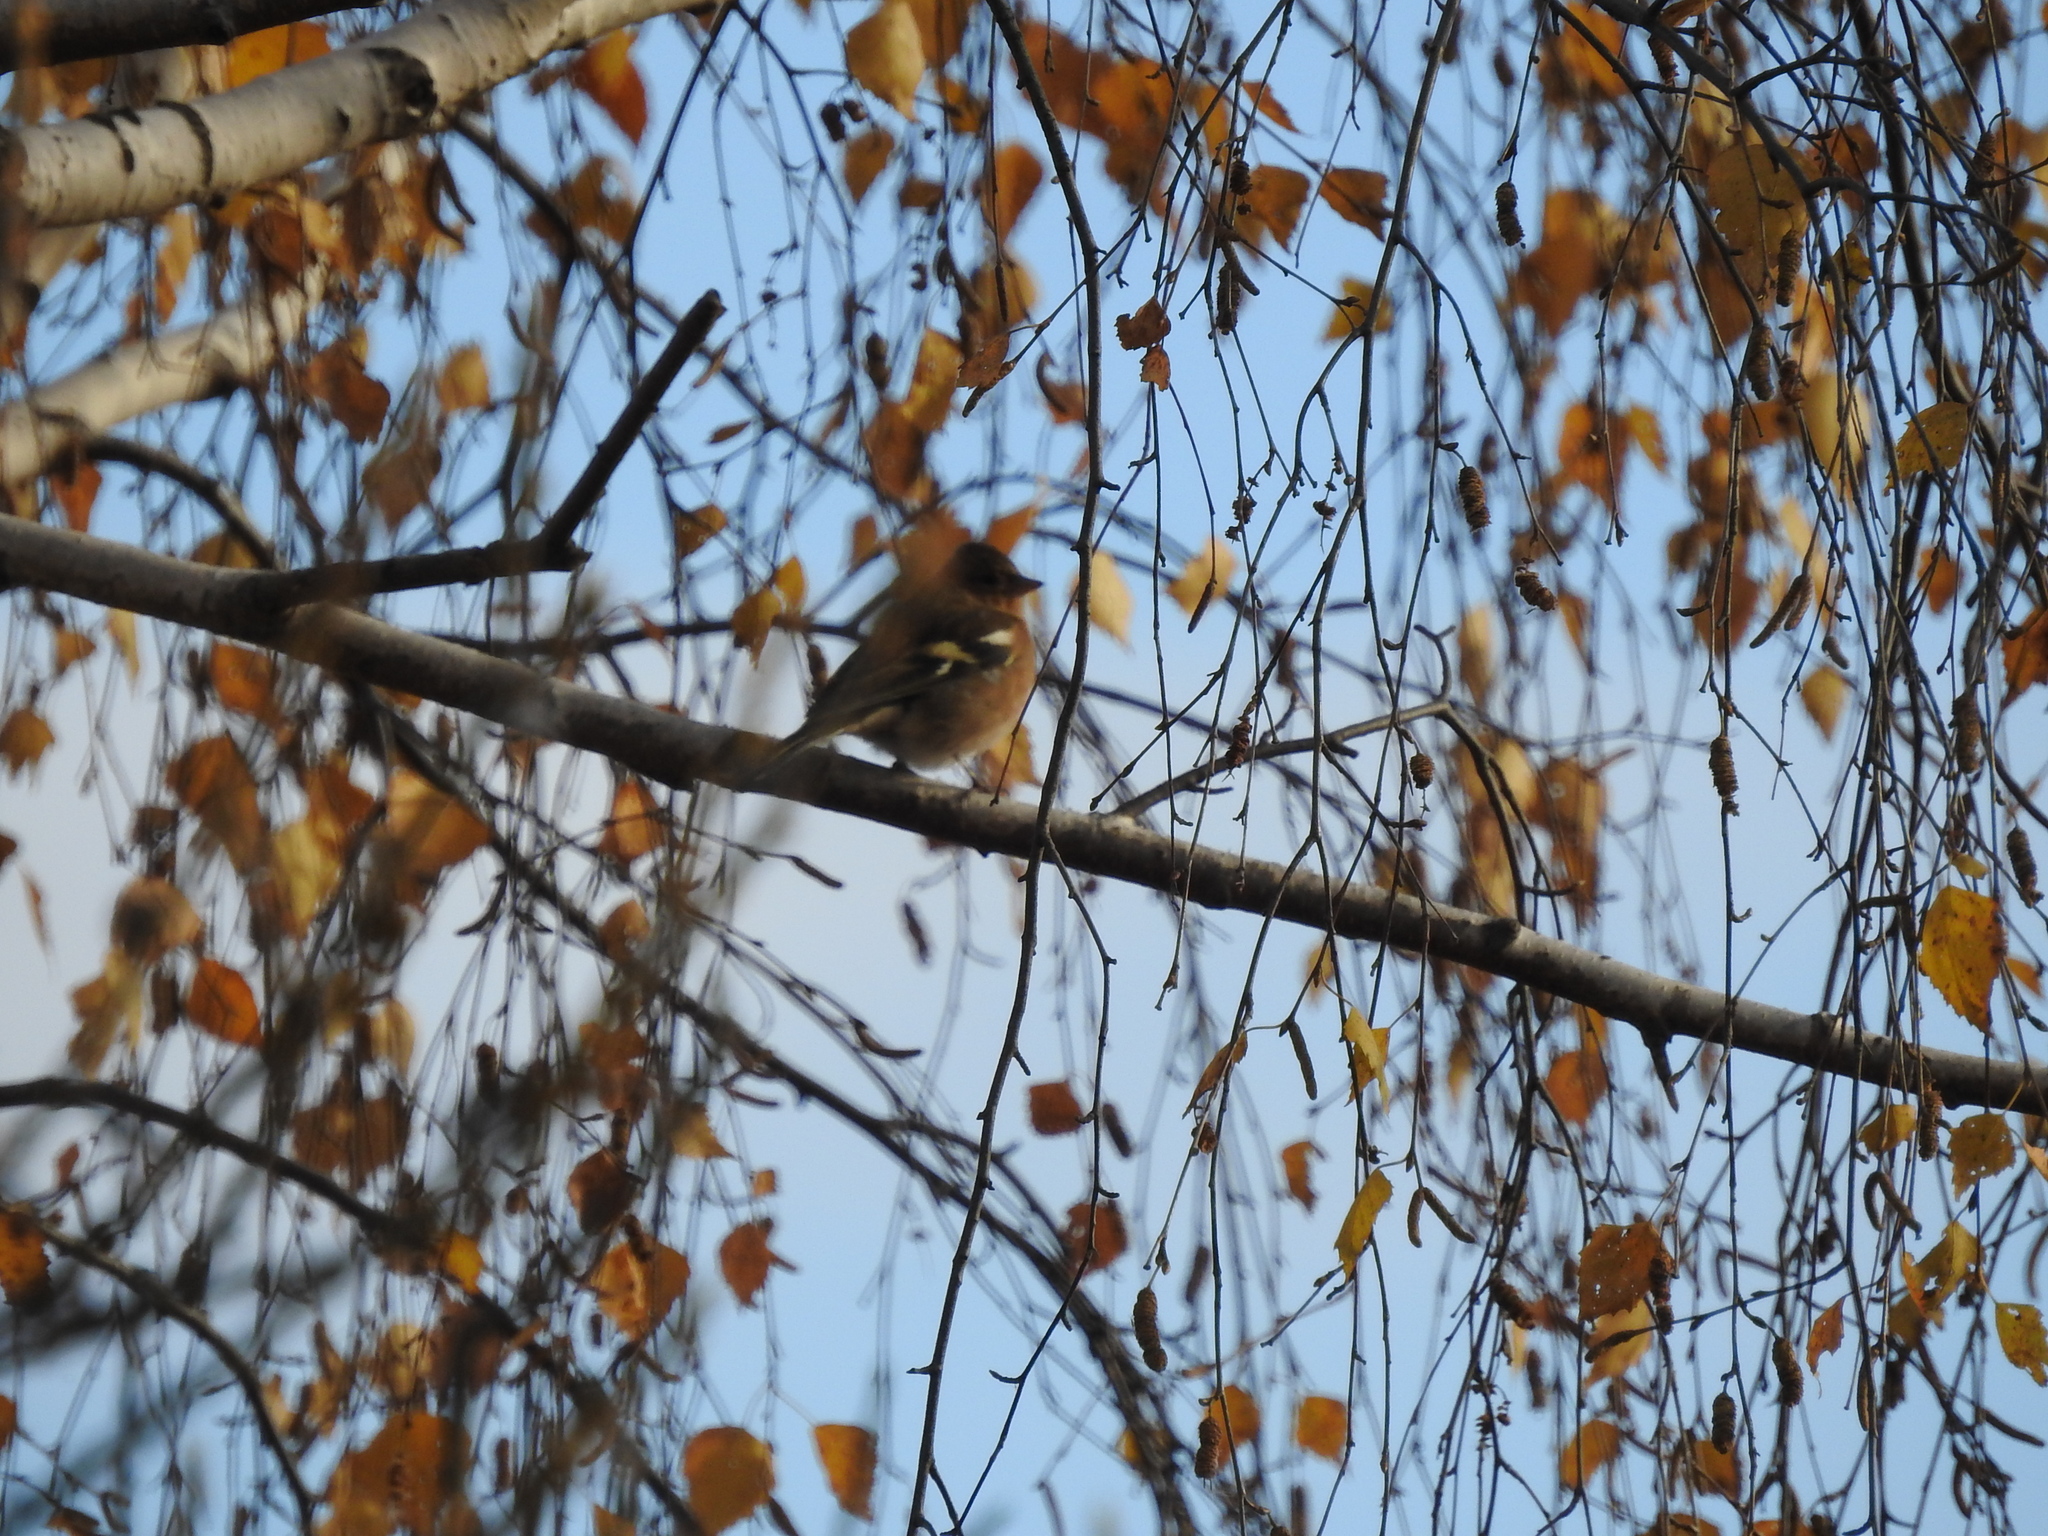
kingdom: Animalia
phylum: Chordata
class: Aves
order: Passeriformes
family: Fringillidae
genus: Fringilla
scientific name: Fringilla coelebs
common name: Common chaffinch
